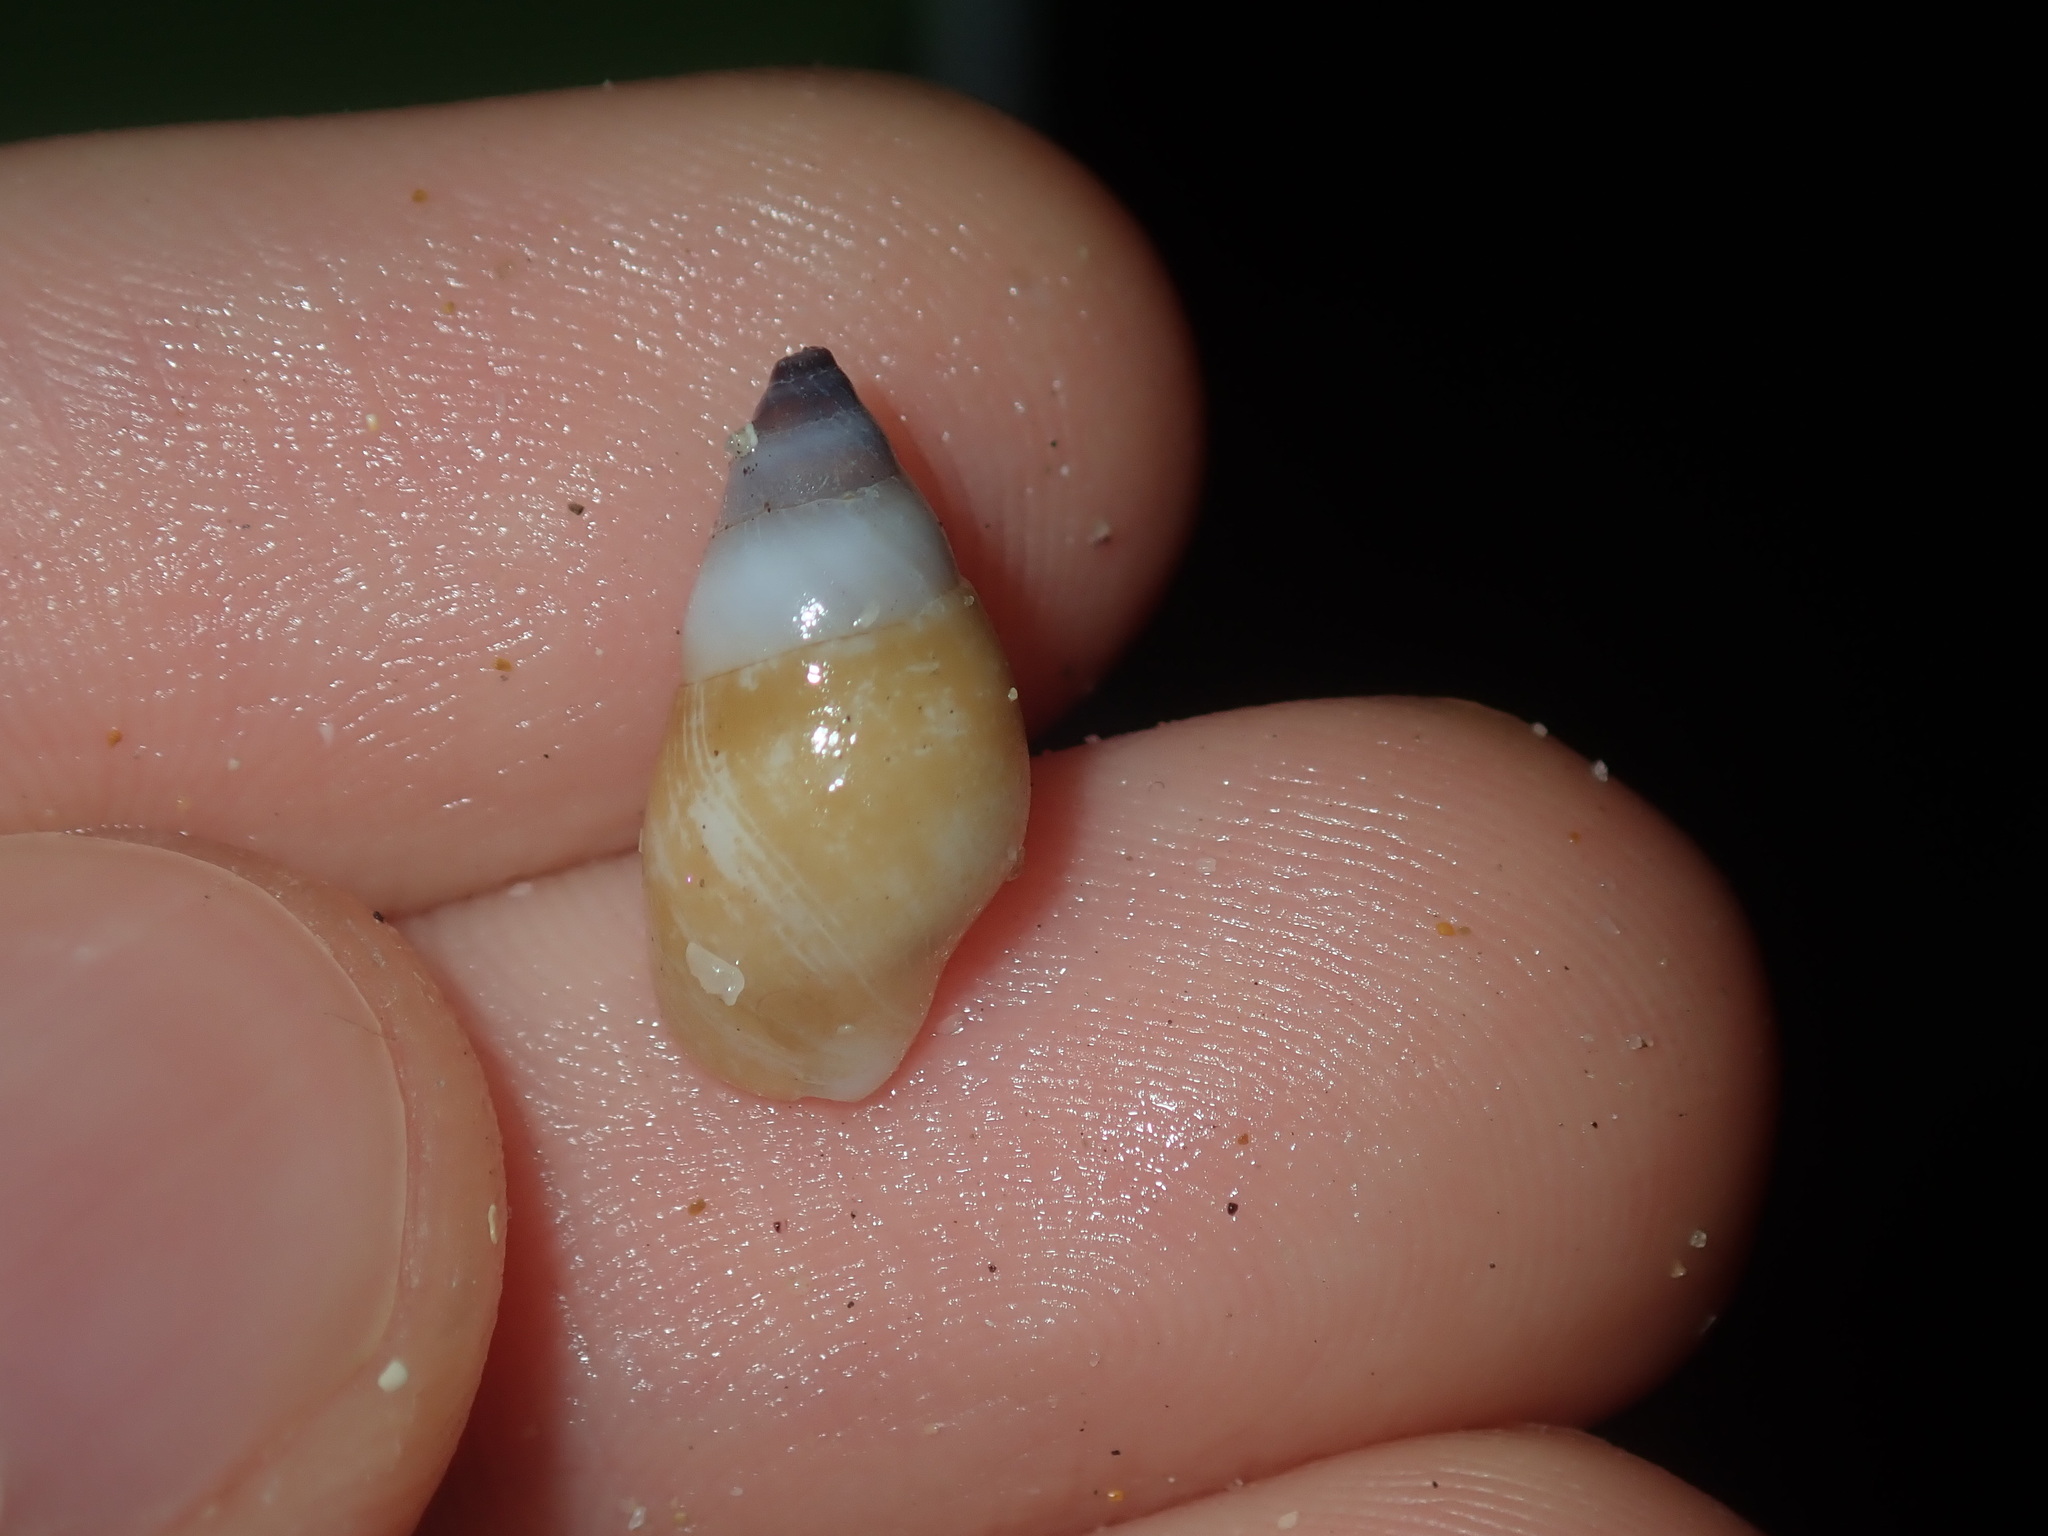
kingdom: Animalia
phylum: Mollusca
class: Gastropoda
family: Planaxidae
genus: Hinea
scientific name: Hinea brasiliana
